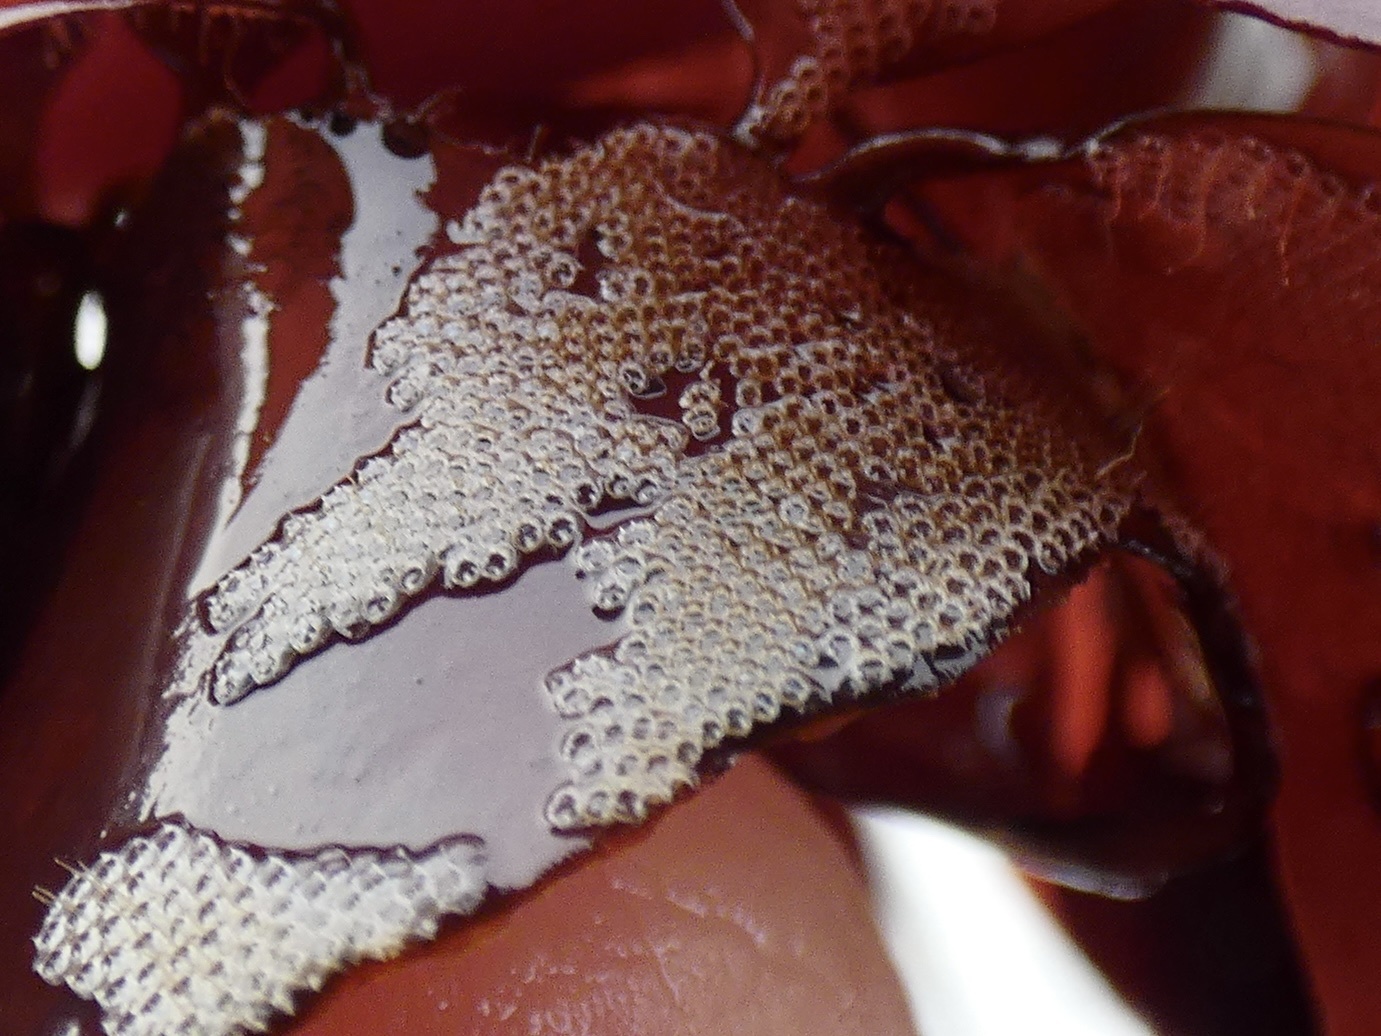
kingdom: Animalia
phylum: Bryozoa
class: Gymnolaemata
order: Cheilostomatida
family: Electridae
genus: Electra
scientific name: Electra pilosa
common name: Hairy sea-mat
